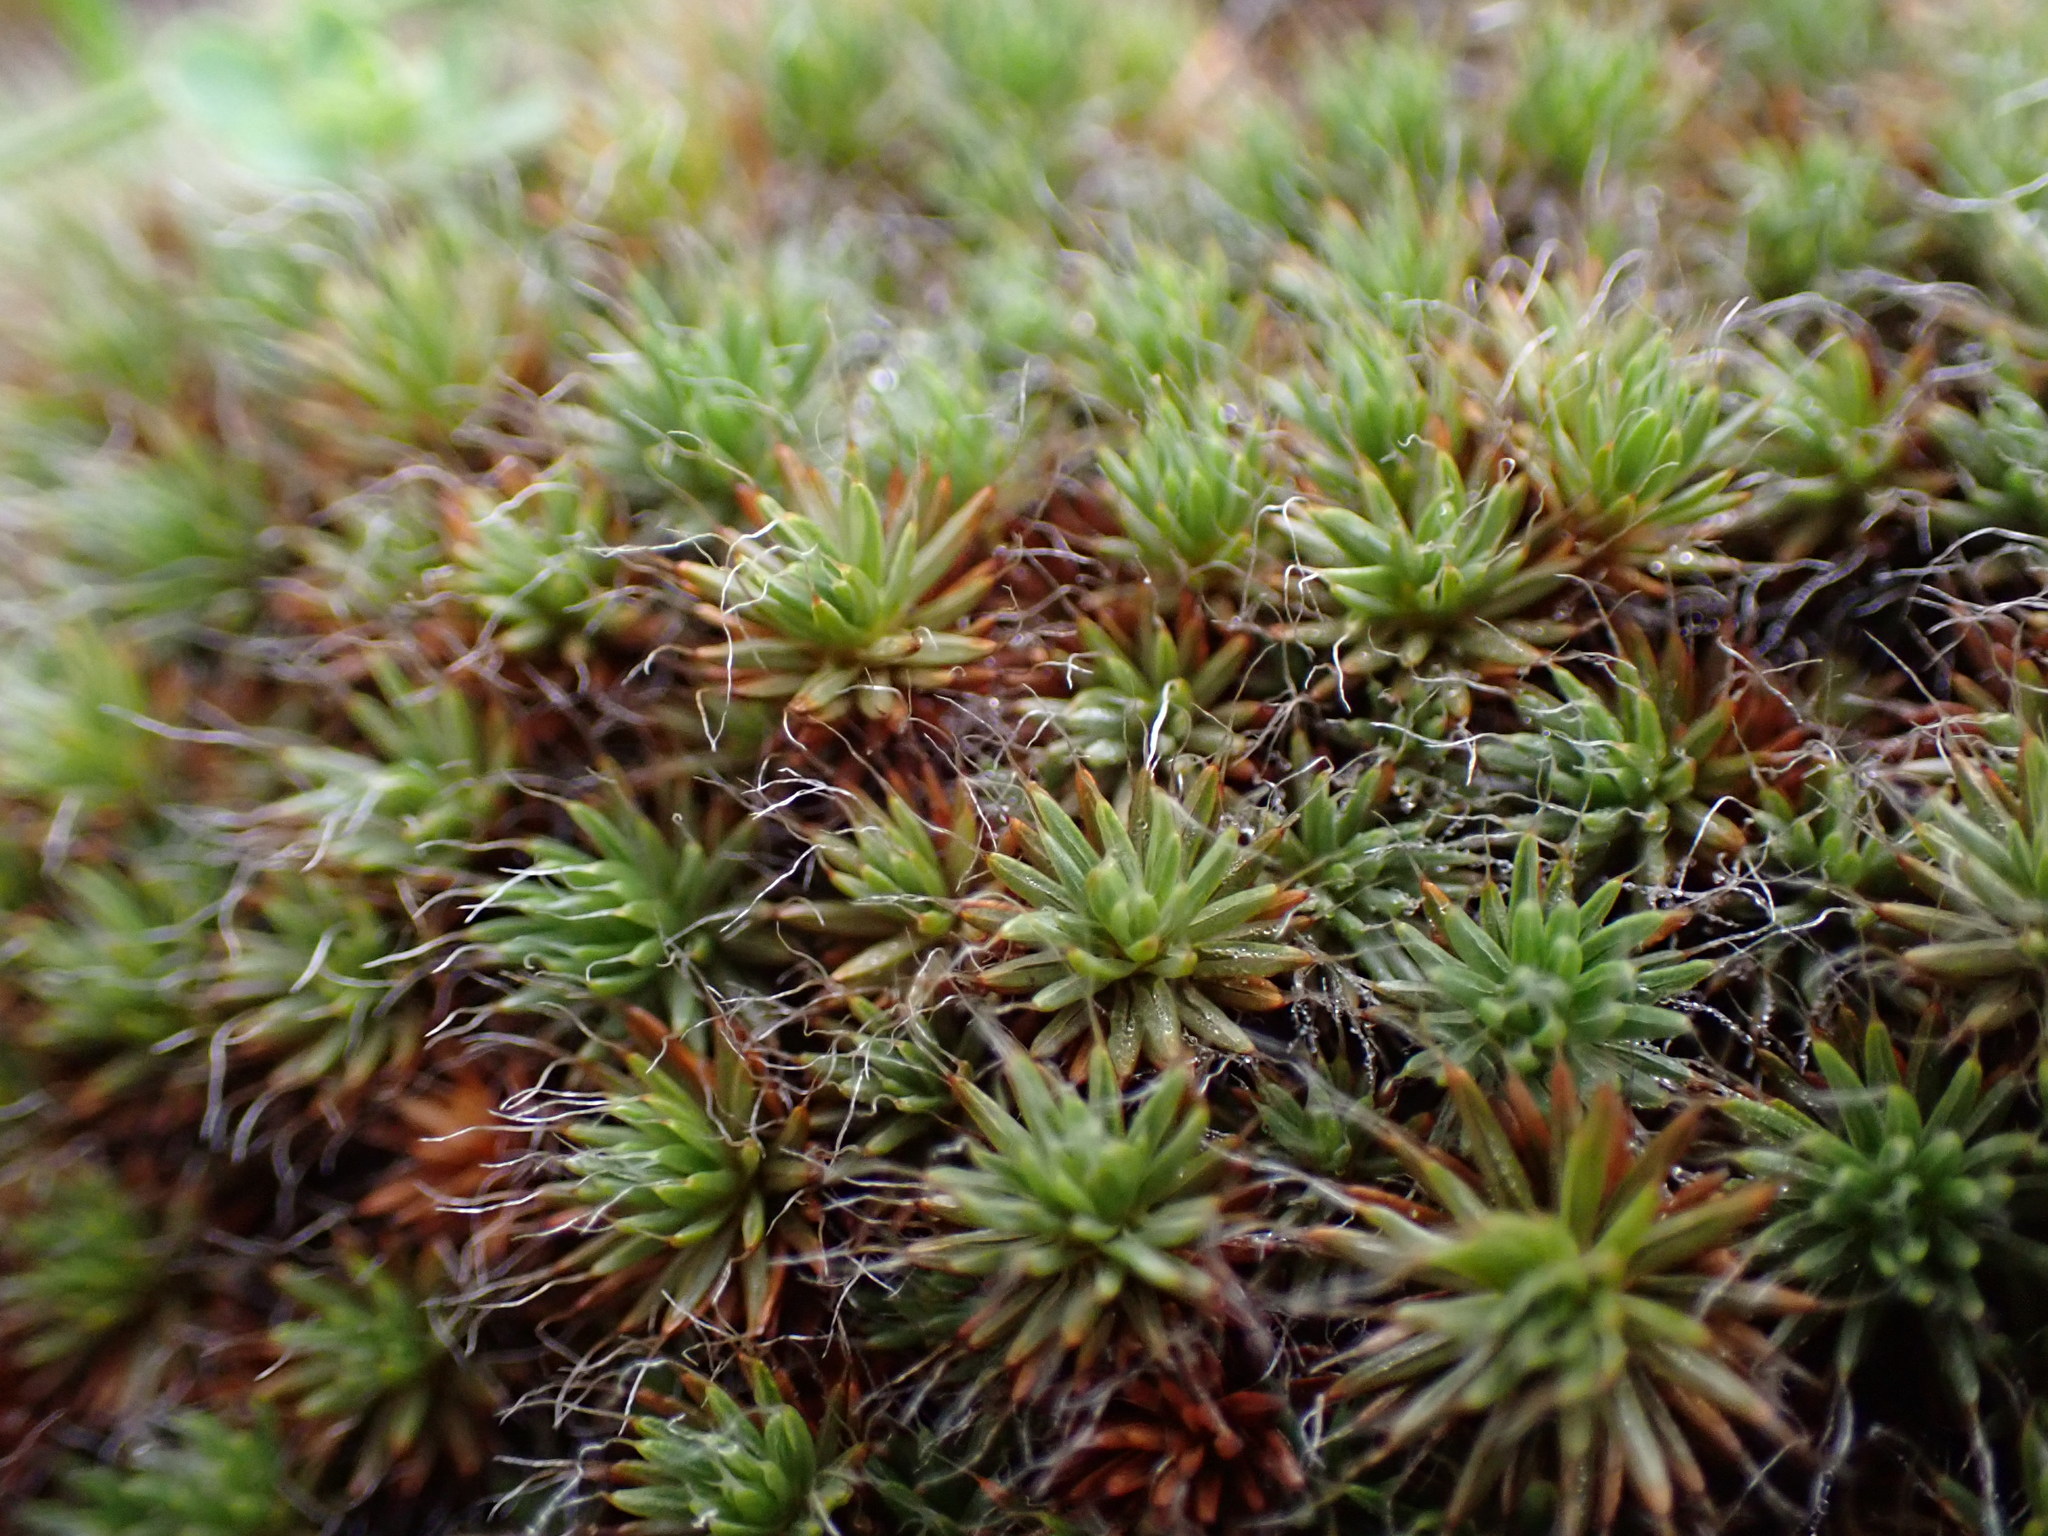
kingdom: Plantae
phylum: Bryophyta
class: Polytrichopsida
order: Polytrichales
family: Polytrichaceae
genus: Polytrichum
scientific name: Polytrichum piliferum
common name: Bristly haircap
